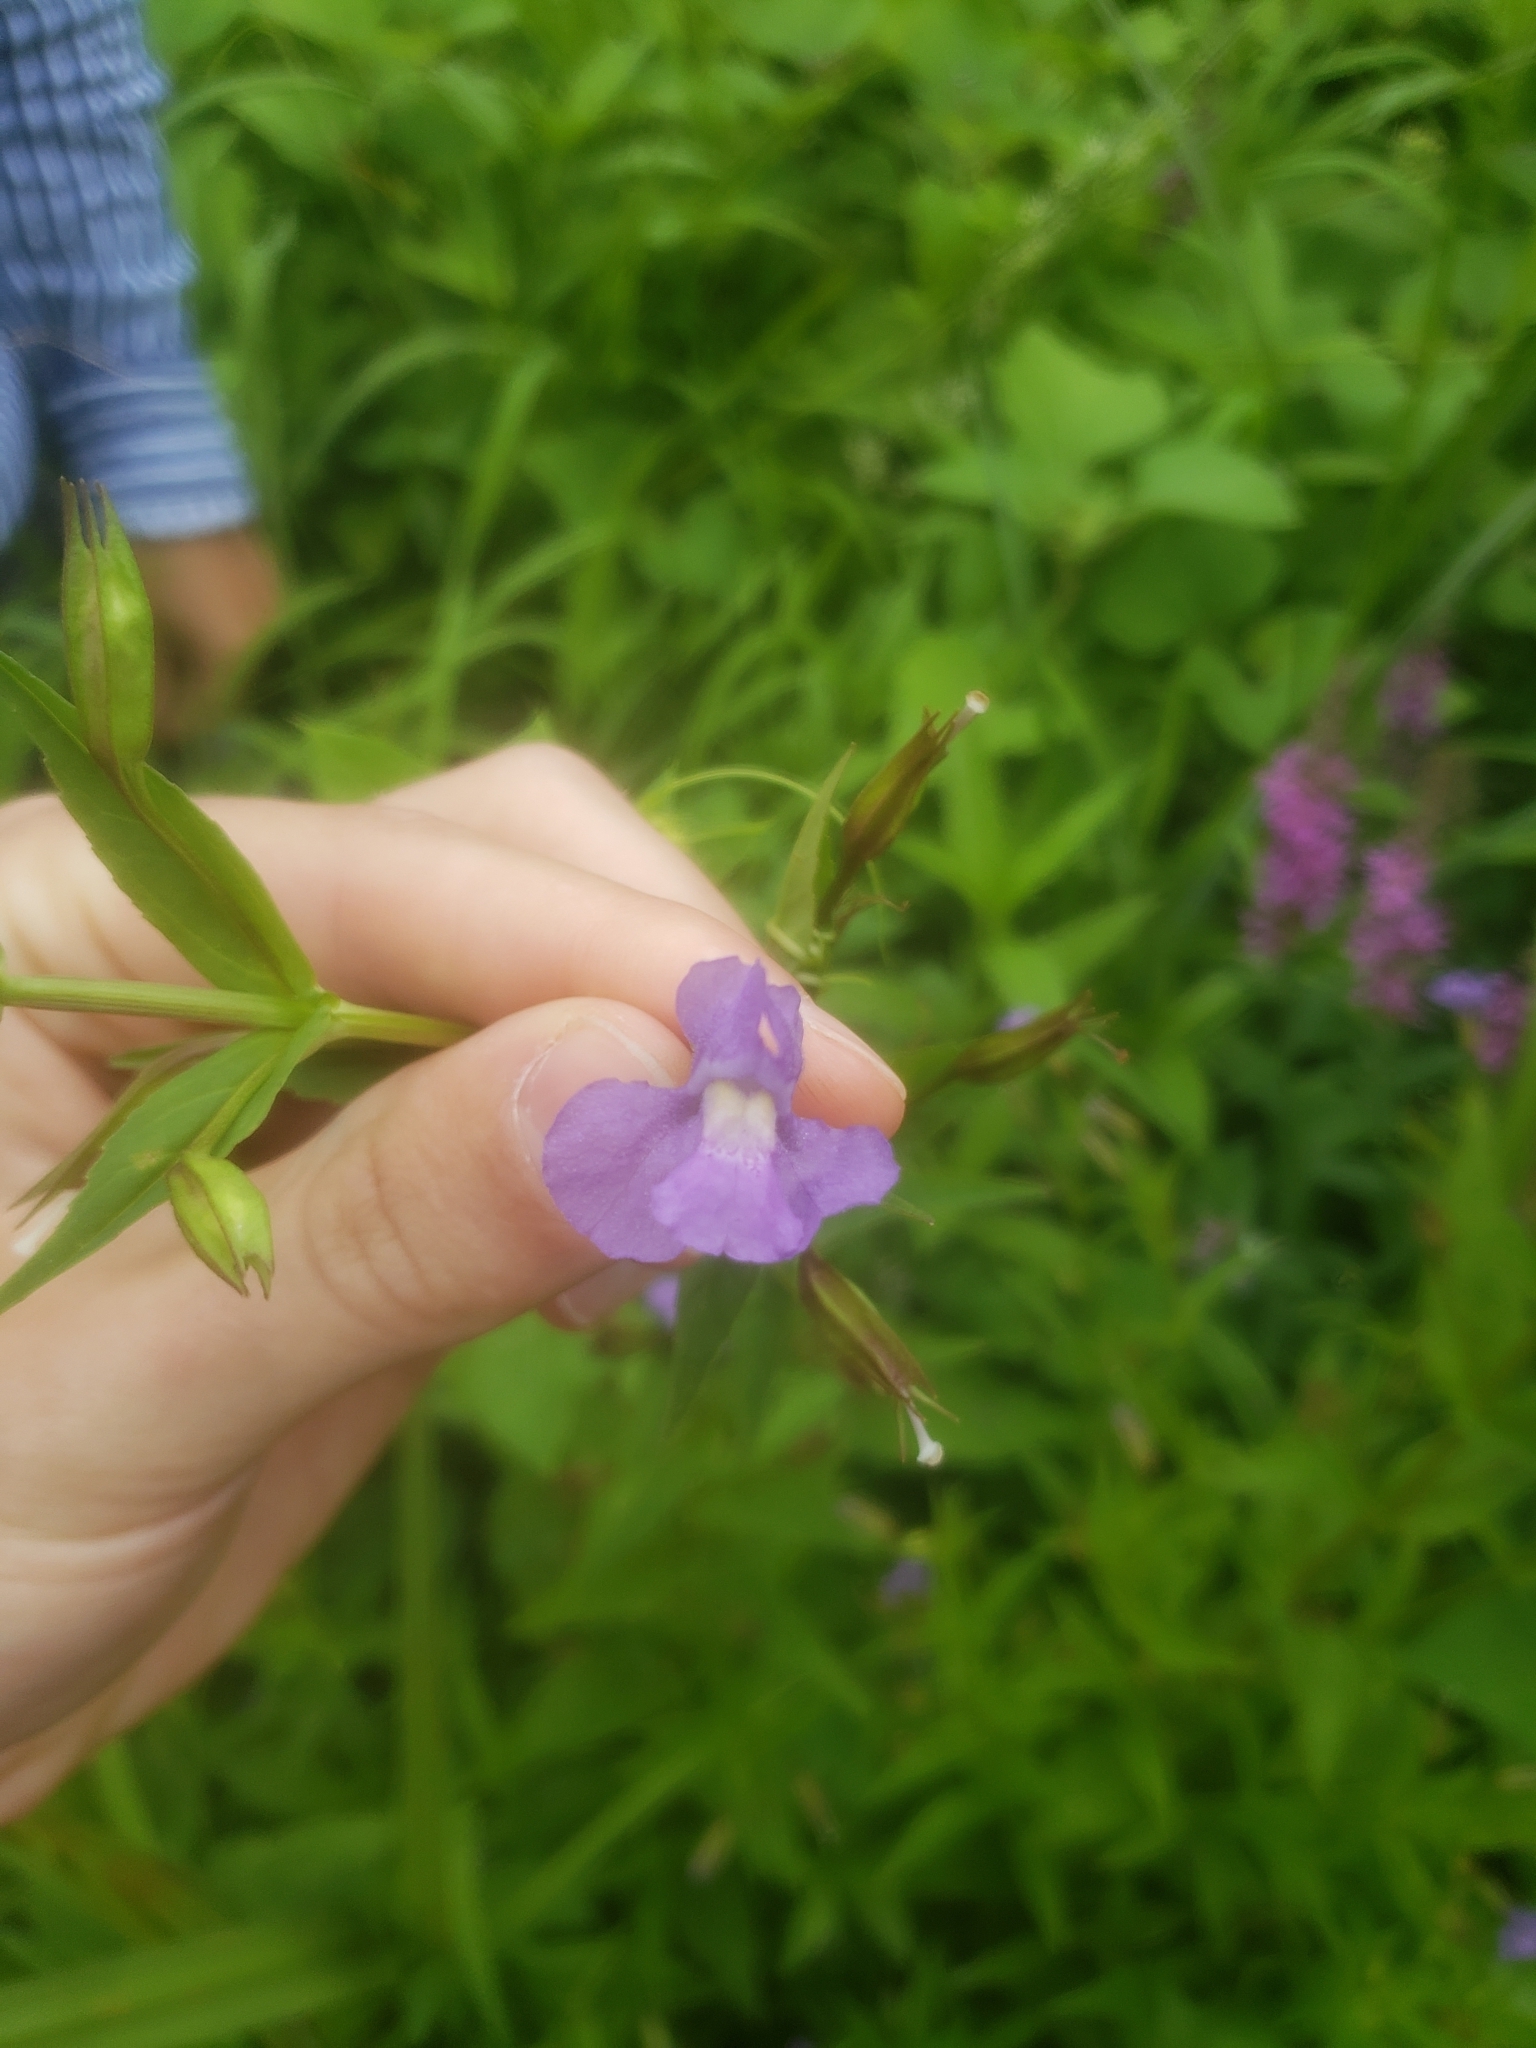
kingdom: Plantae
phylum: Tracheophyta
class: Magnoliopsida
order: Lamiales
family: Phrymaceae
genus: Mimulus
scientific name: Mimulus ringens
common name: Allegheny monkeyflower
